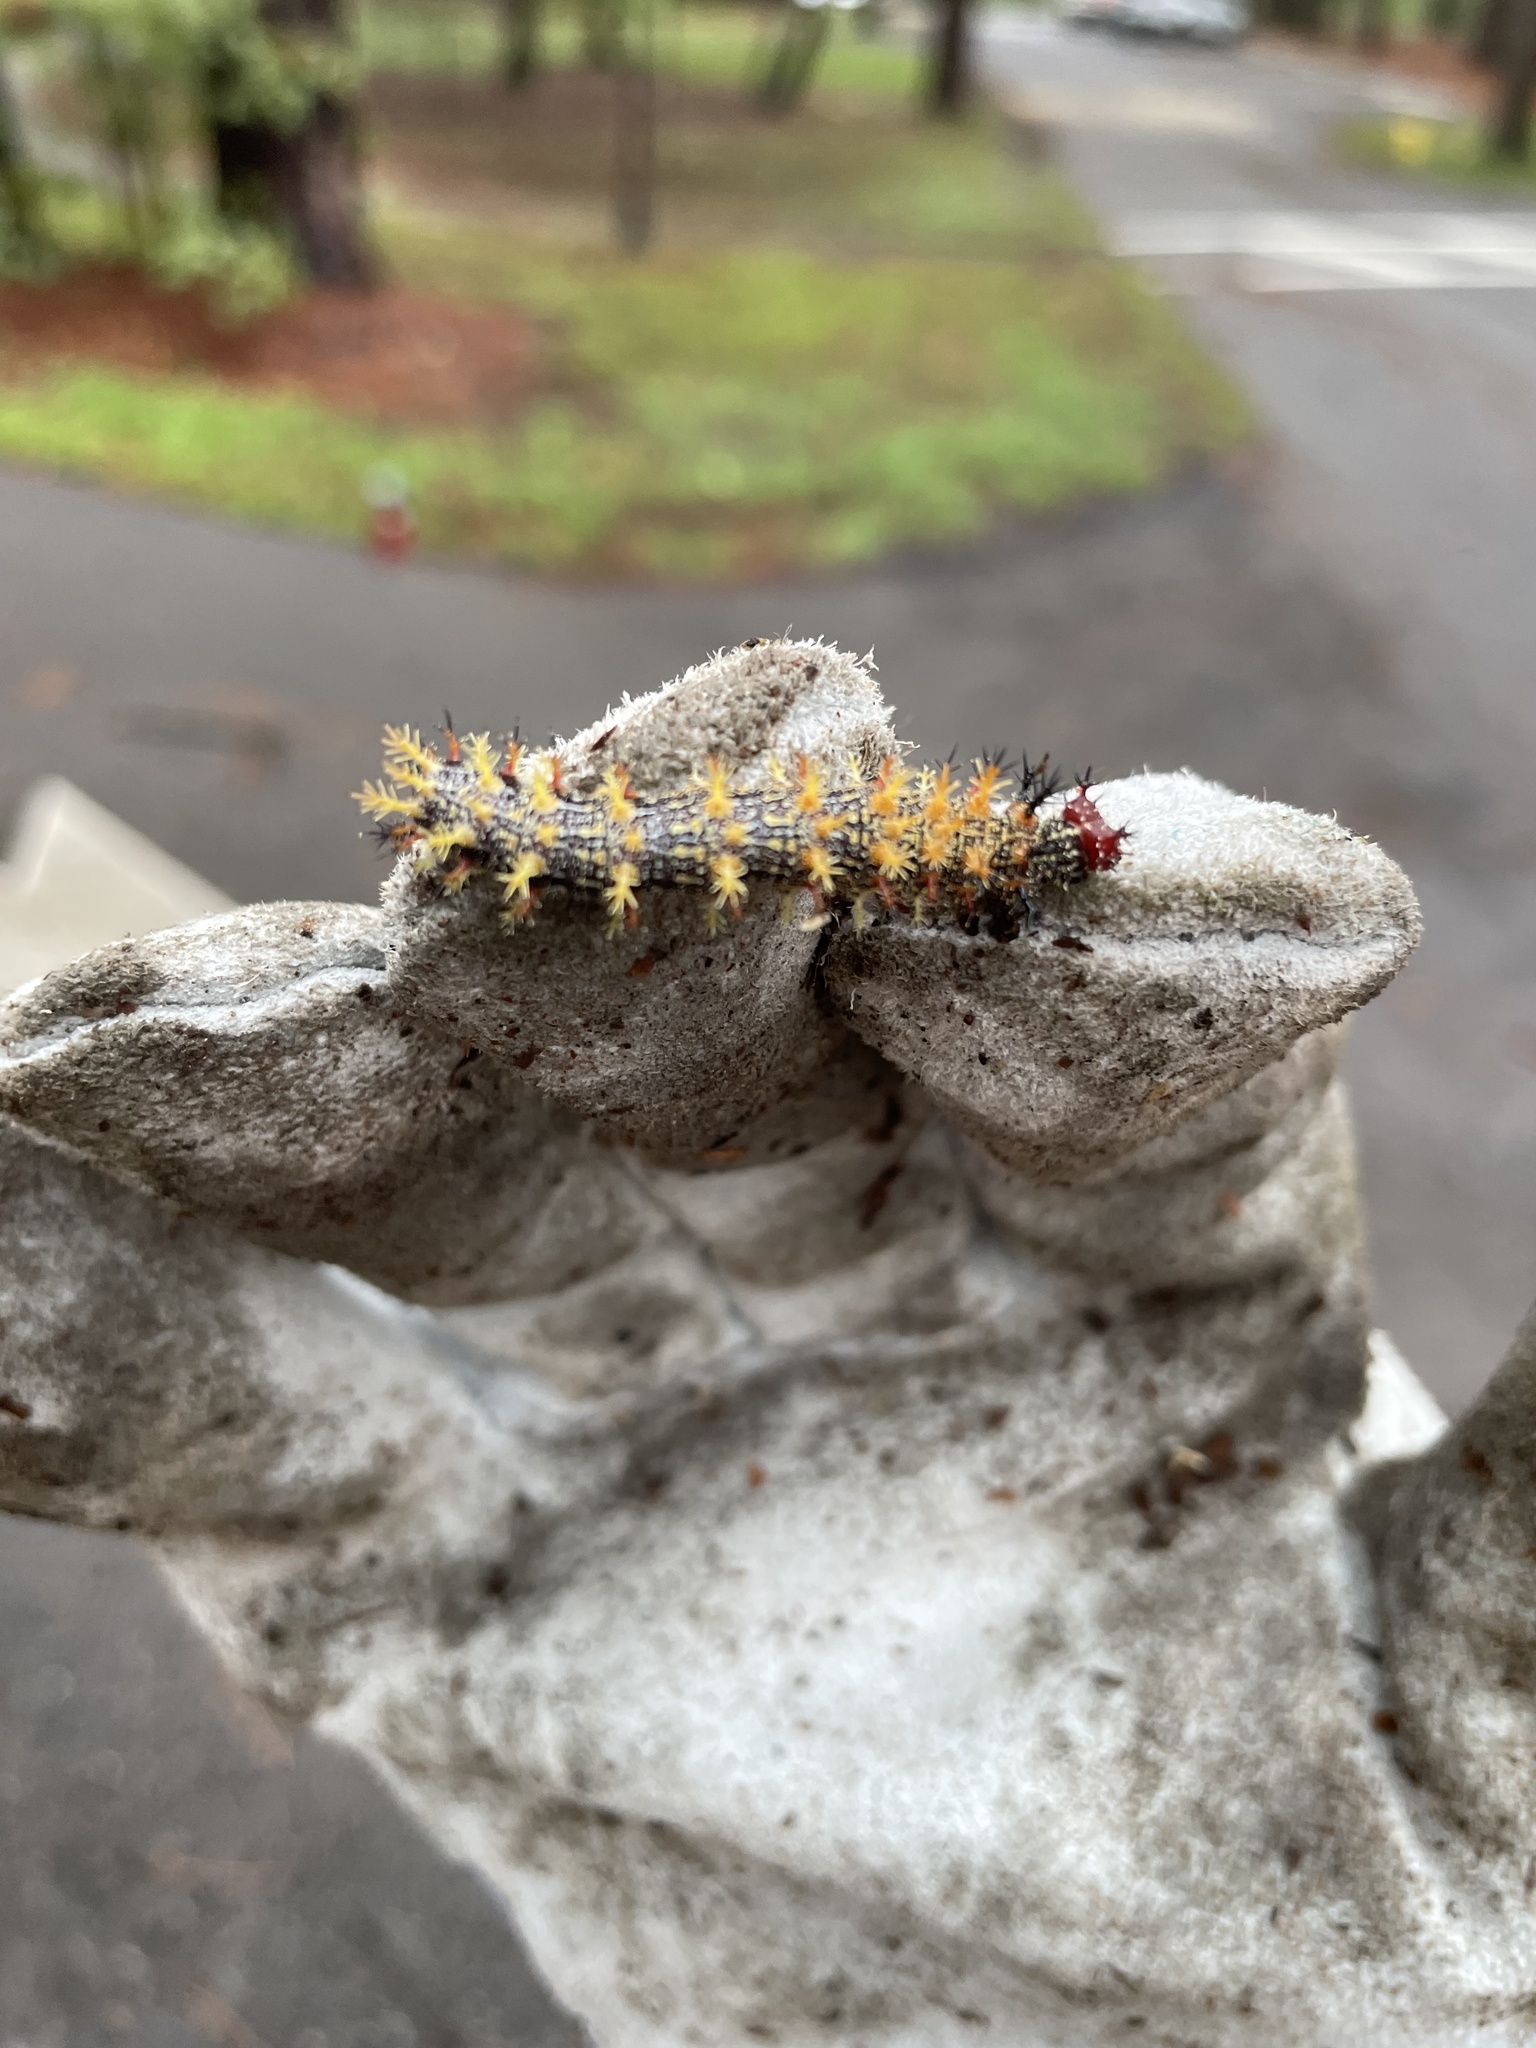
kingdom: Animalia
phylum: Arthropoda
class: Insecta
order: Lepidoptera
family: Nymphalidae
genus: Polygonia
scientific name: Polygonia interrogationis
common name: Question mark
